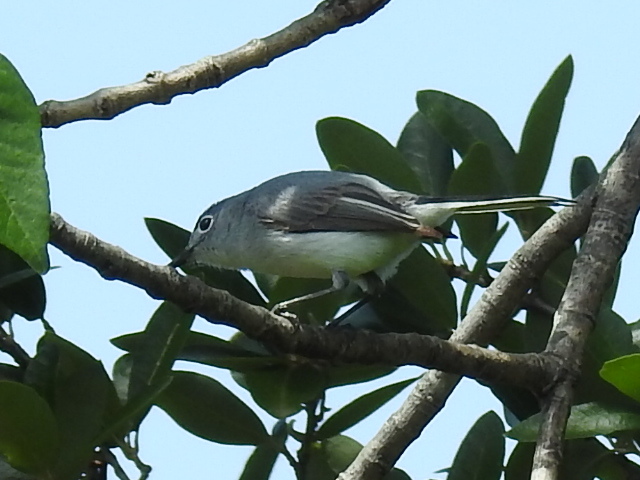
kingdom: Animalia
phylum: Chordata
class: Aves
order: Passeriformes
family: Polioptilidae
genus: Polioptila
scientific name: Polioptila caerulea
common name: Blue-gray gnatcatcher
